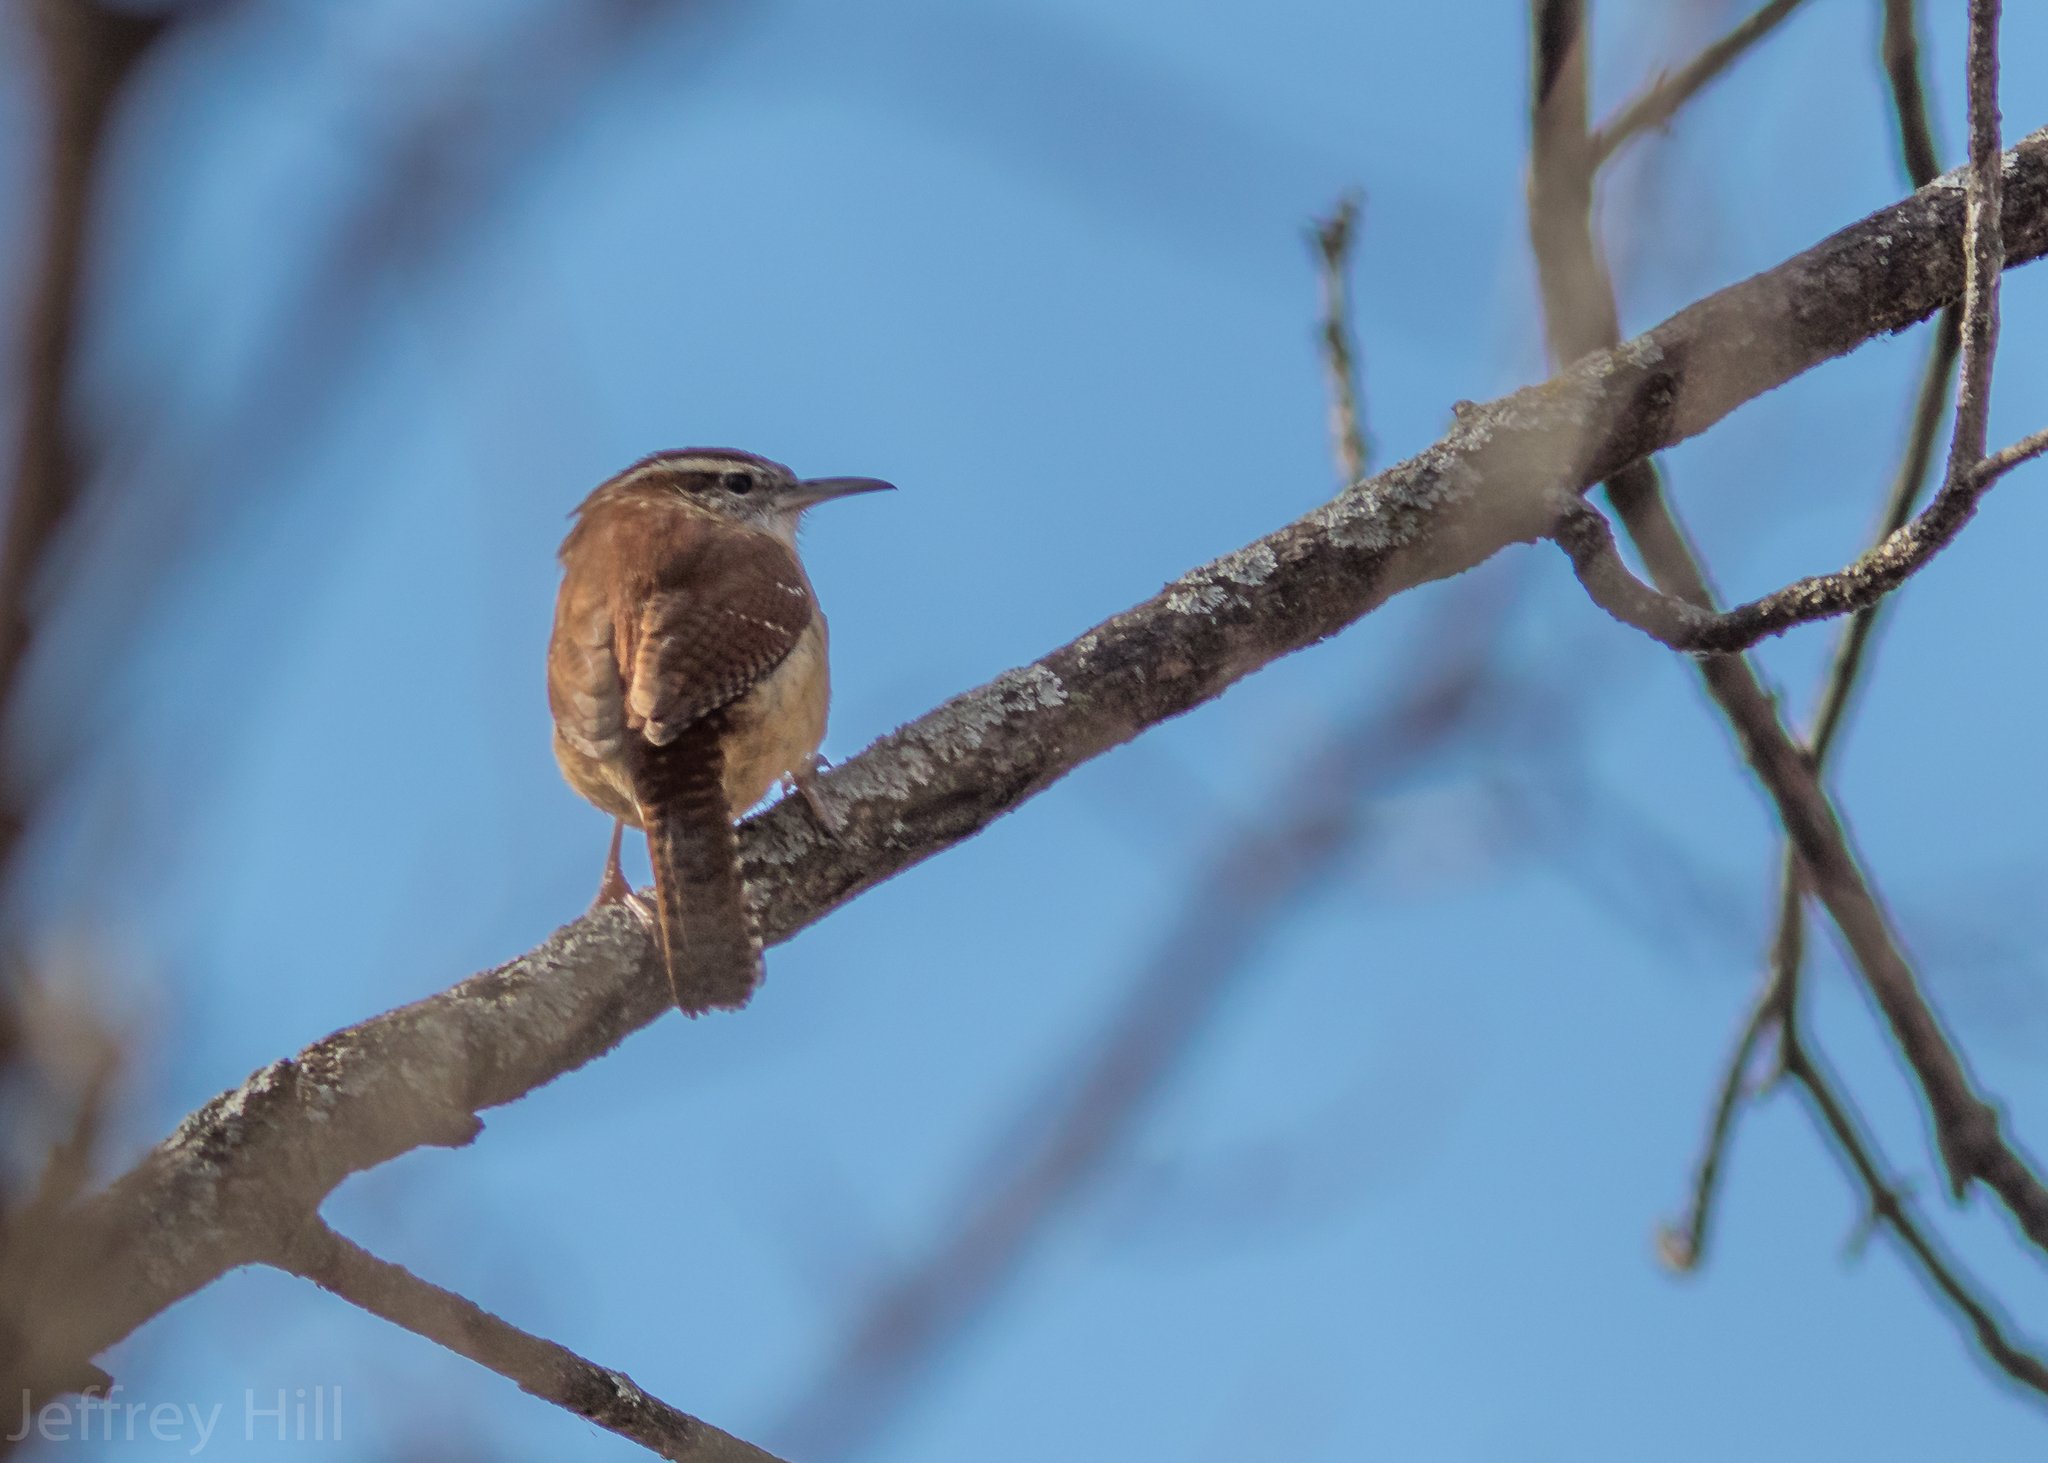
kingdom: Animalia
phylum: Chordata
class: Aves
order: Passeriformes
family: Troglodytidae
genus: Thryothorus
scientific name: Thryothorus ludovicianus
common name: Carolina wren
